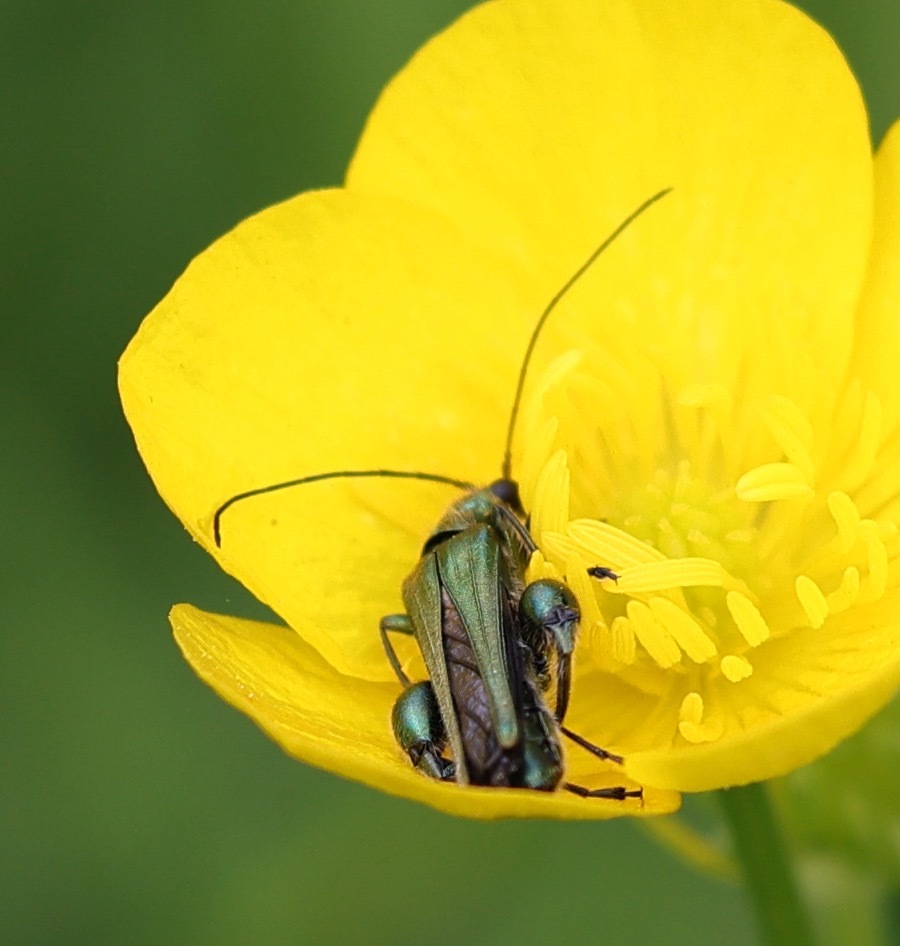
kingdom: Animalia
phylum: Arthropoda
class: Insecta
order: Coleoptera
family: Oedemeridae
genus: Oedemera
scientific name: Oedemera nobilis
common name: Swollen-thighed beetle
